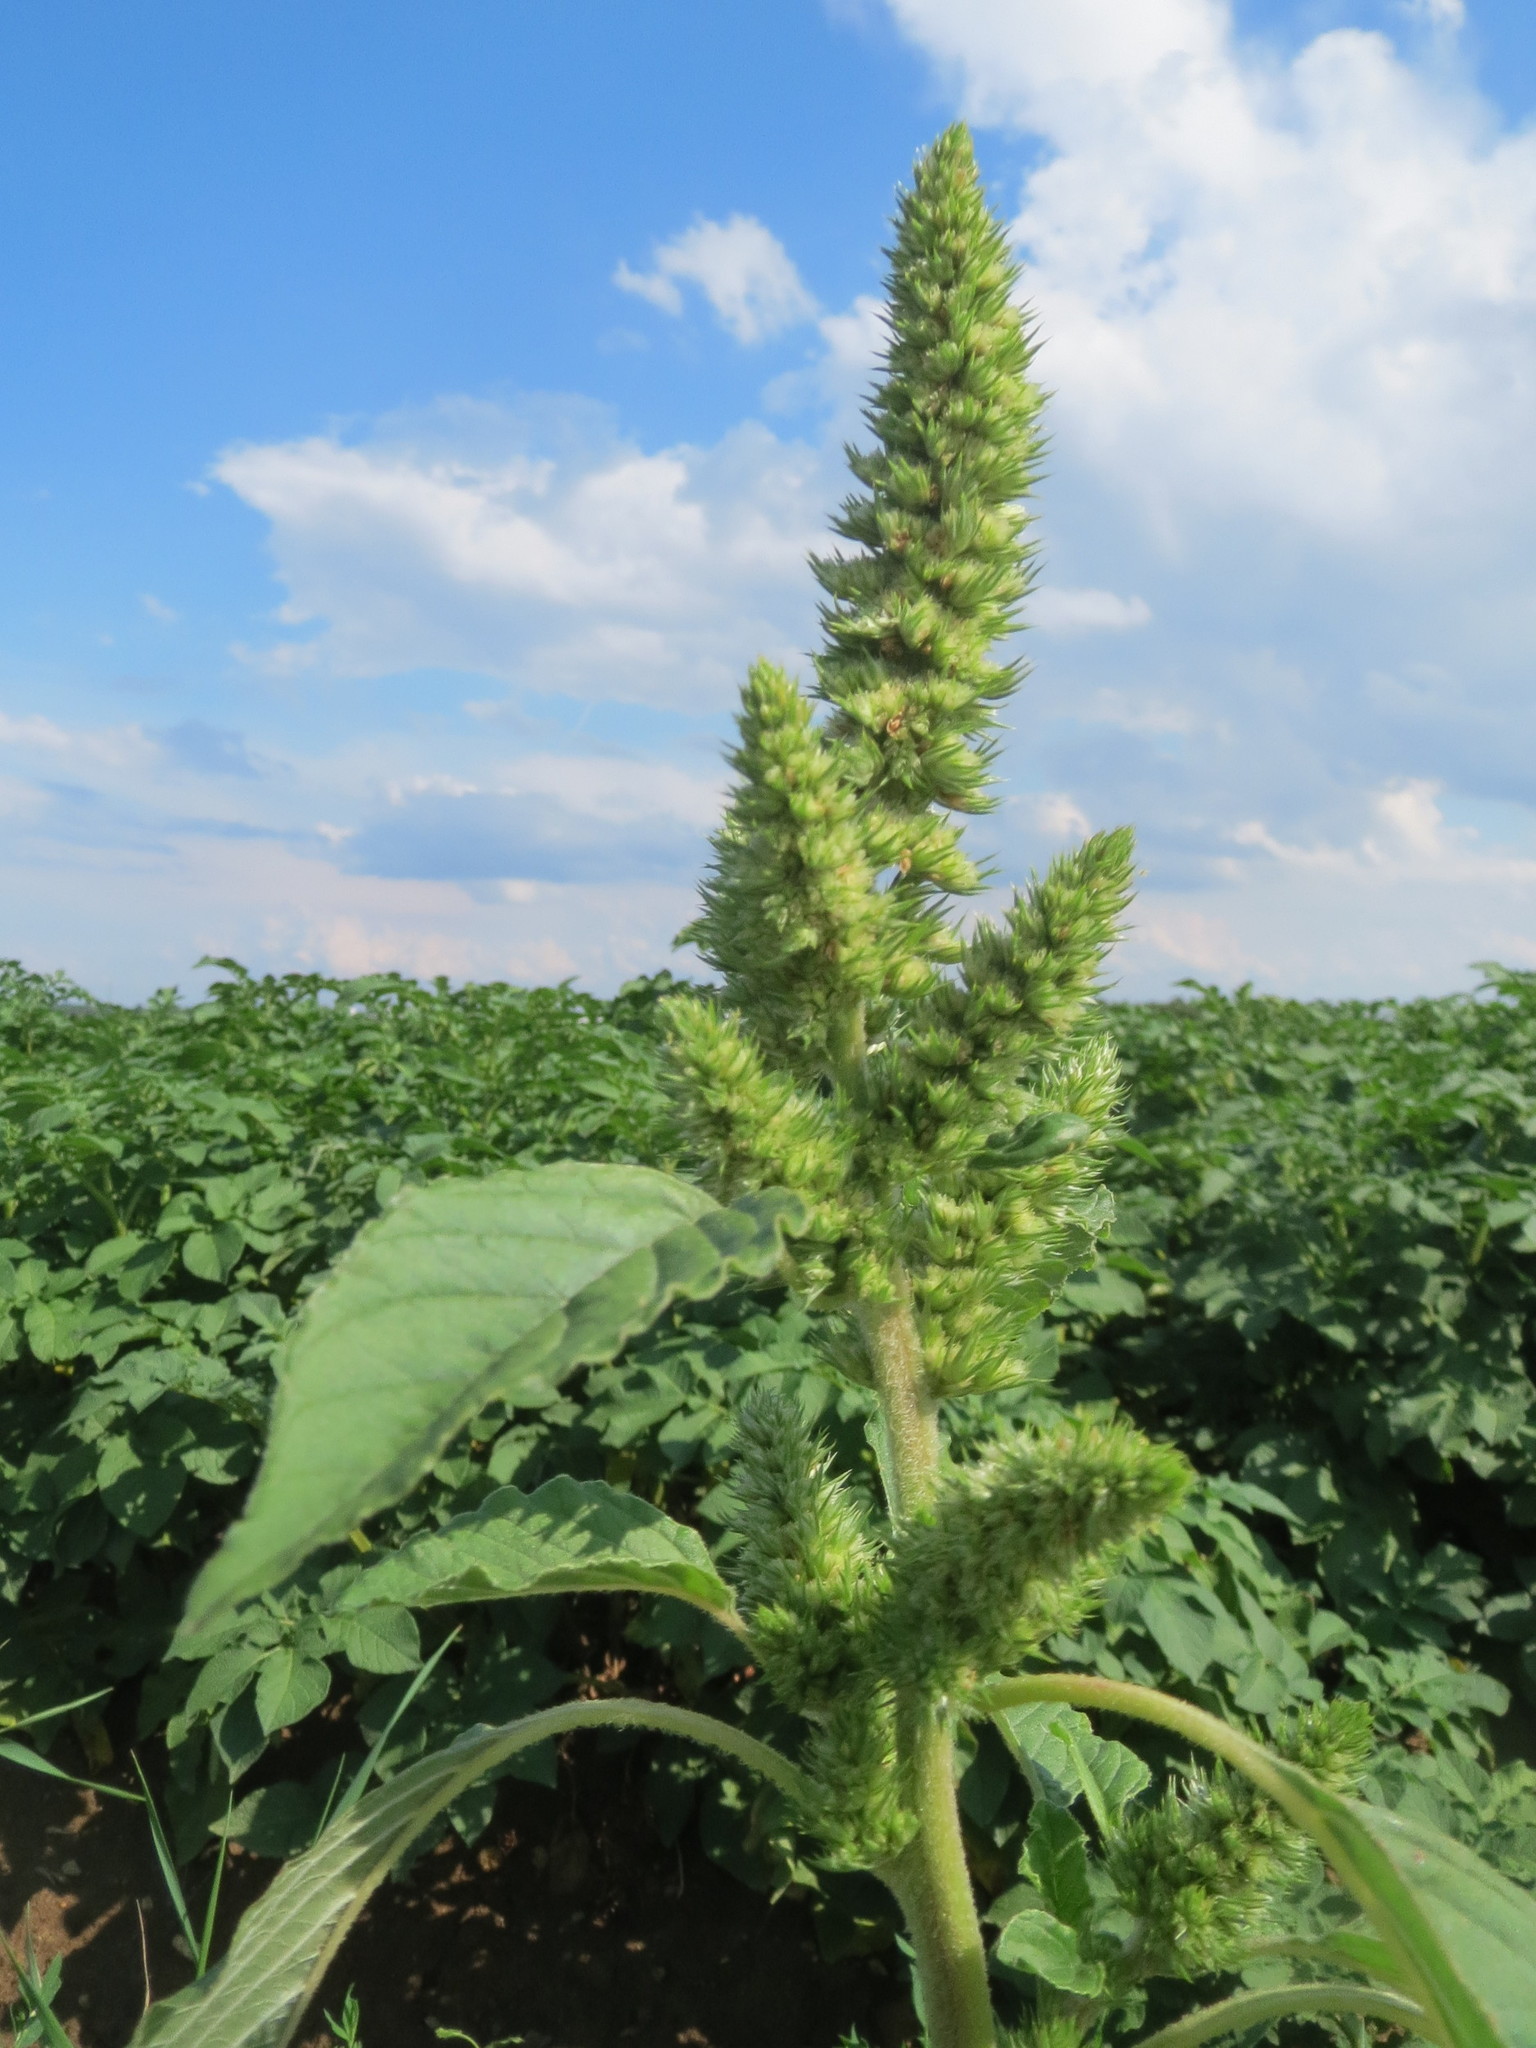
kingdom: Plantae
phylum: Tracheophyta
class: Magnoliopsida
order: Caryophyllales
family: Amaranthaceae
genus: Amaranthus
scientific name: Amaranthus retroflexus
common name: Redroot amaranth
